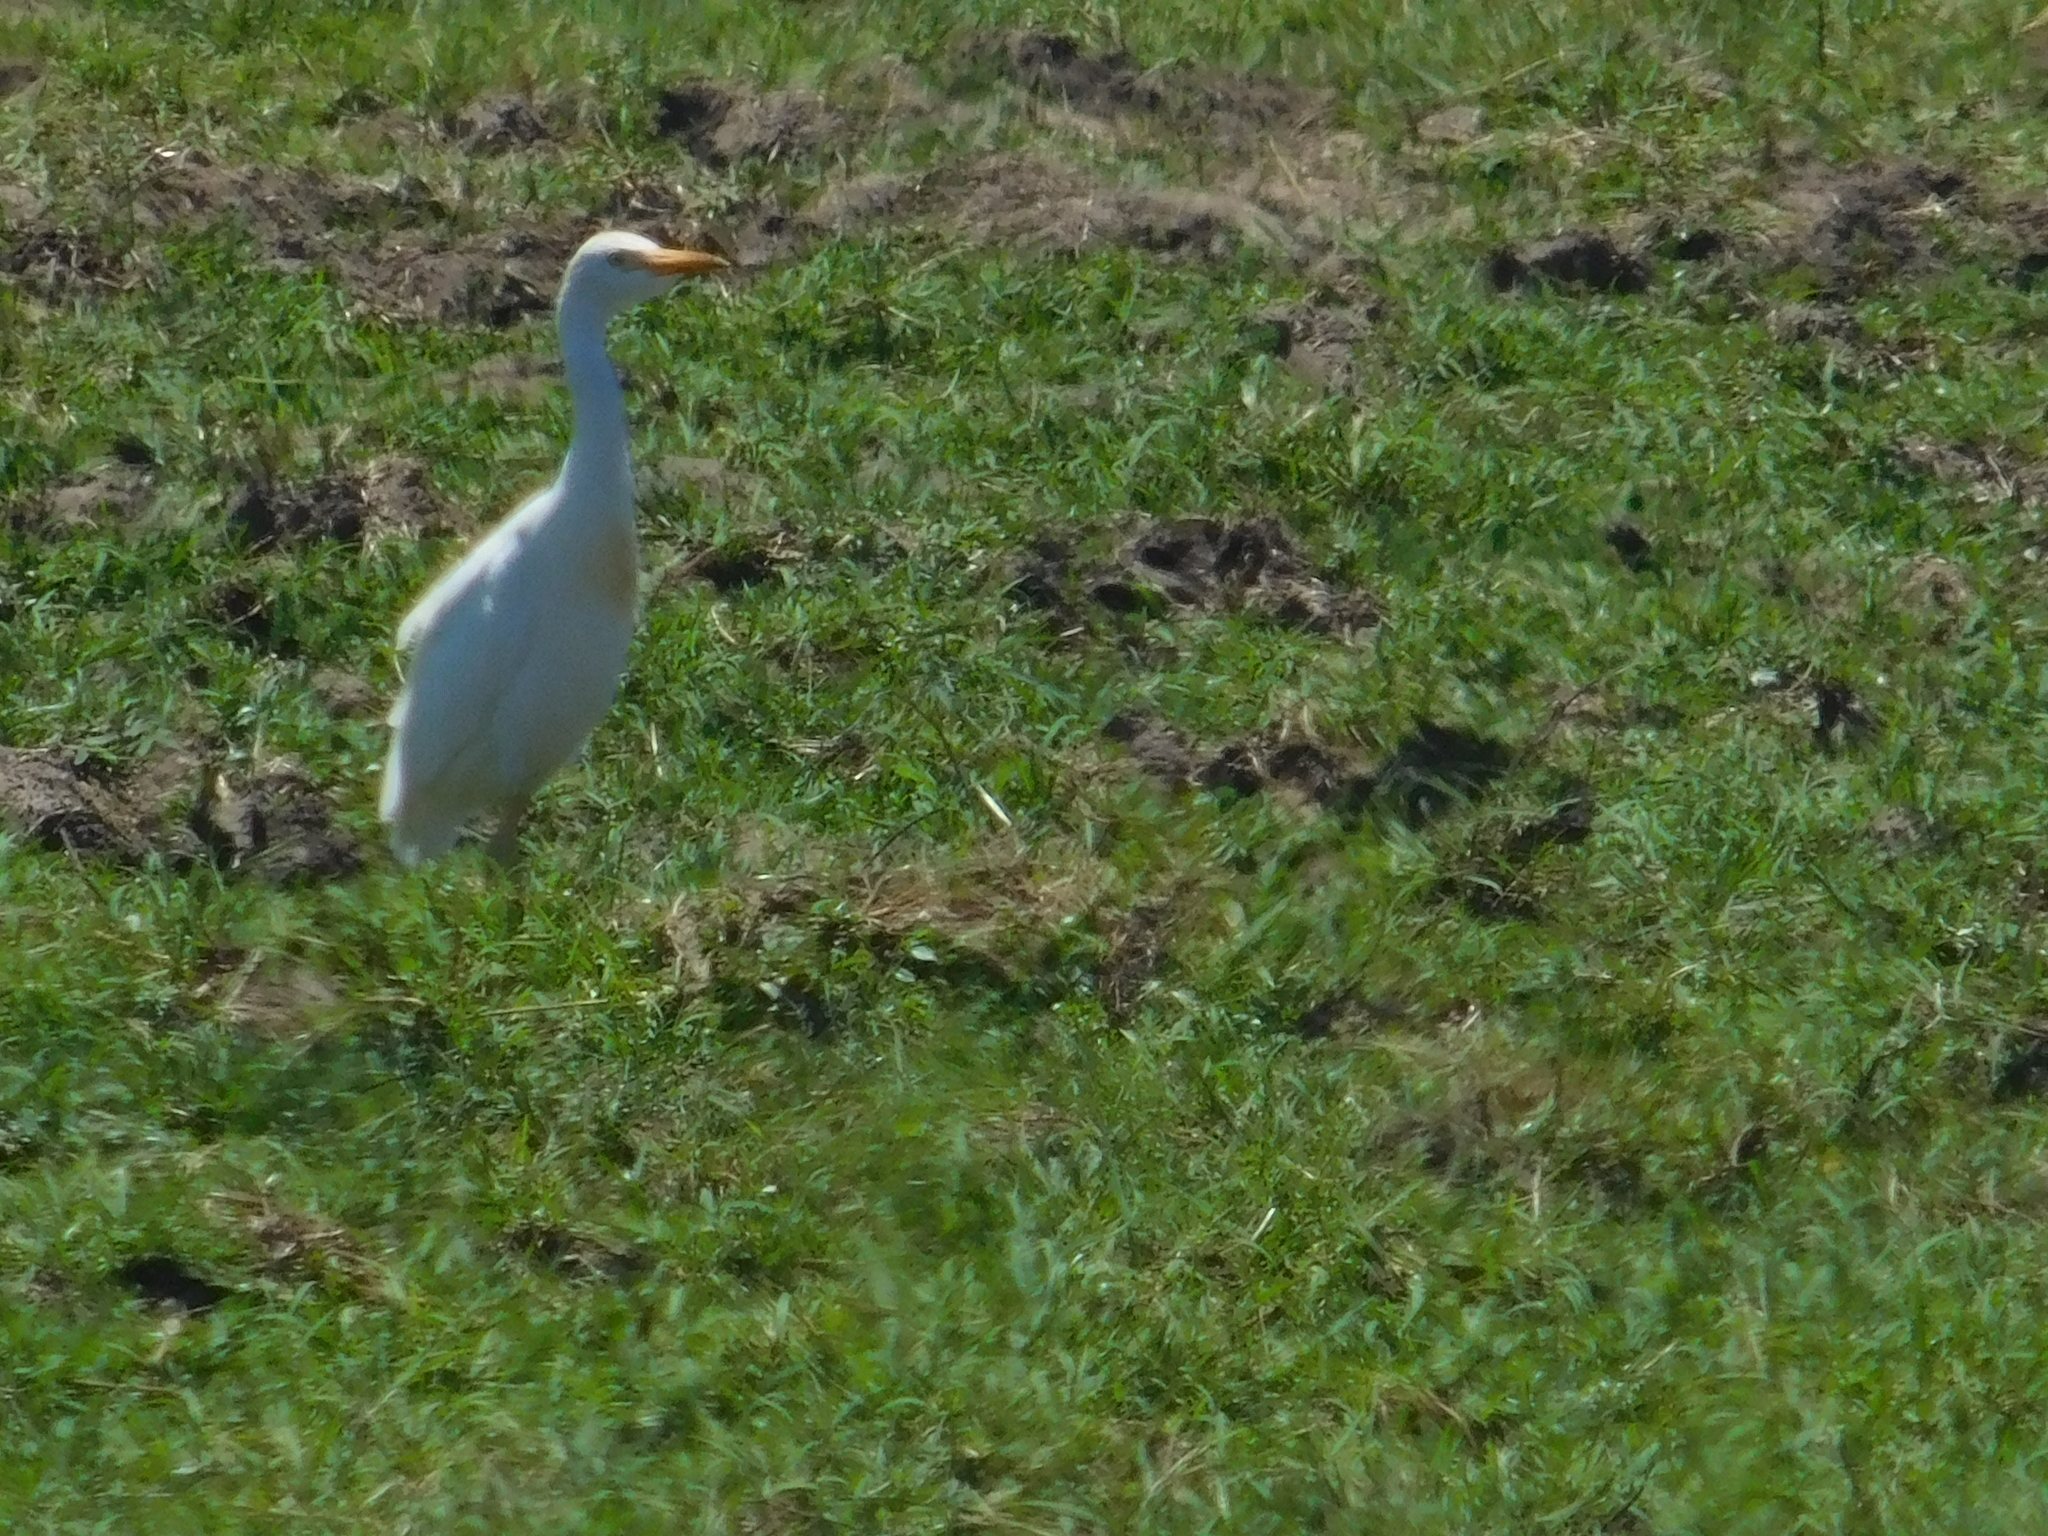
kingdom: Animalia
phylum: Chordata
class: Aves
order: Pelecaniformes
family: Ardeidae
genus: Bubulcus
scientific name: Bubulcus ibis
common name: Cattle egret
